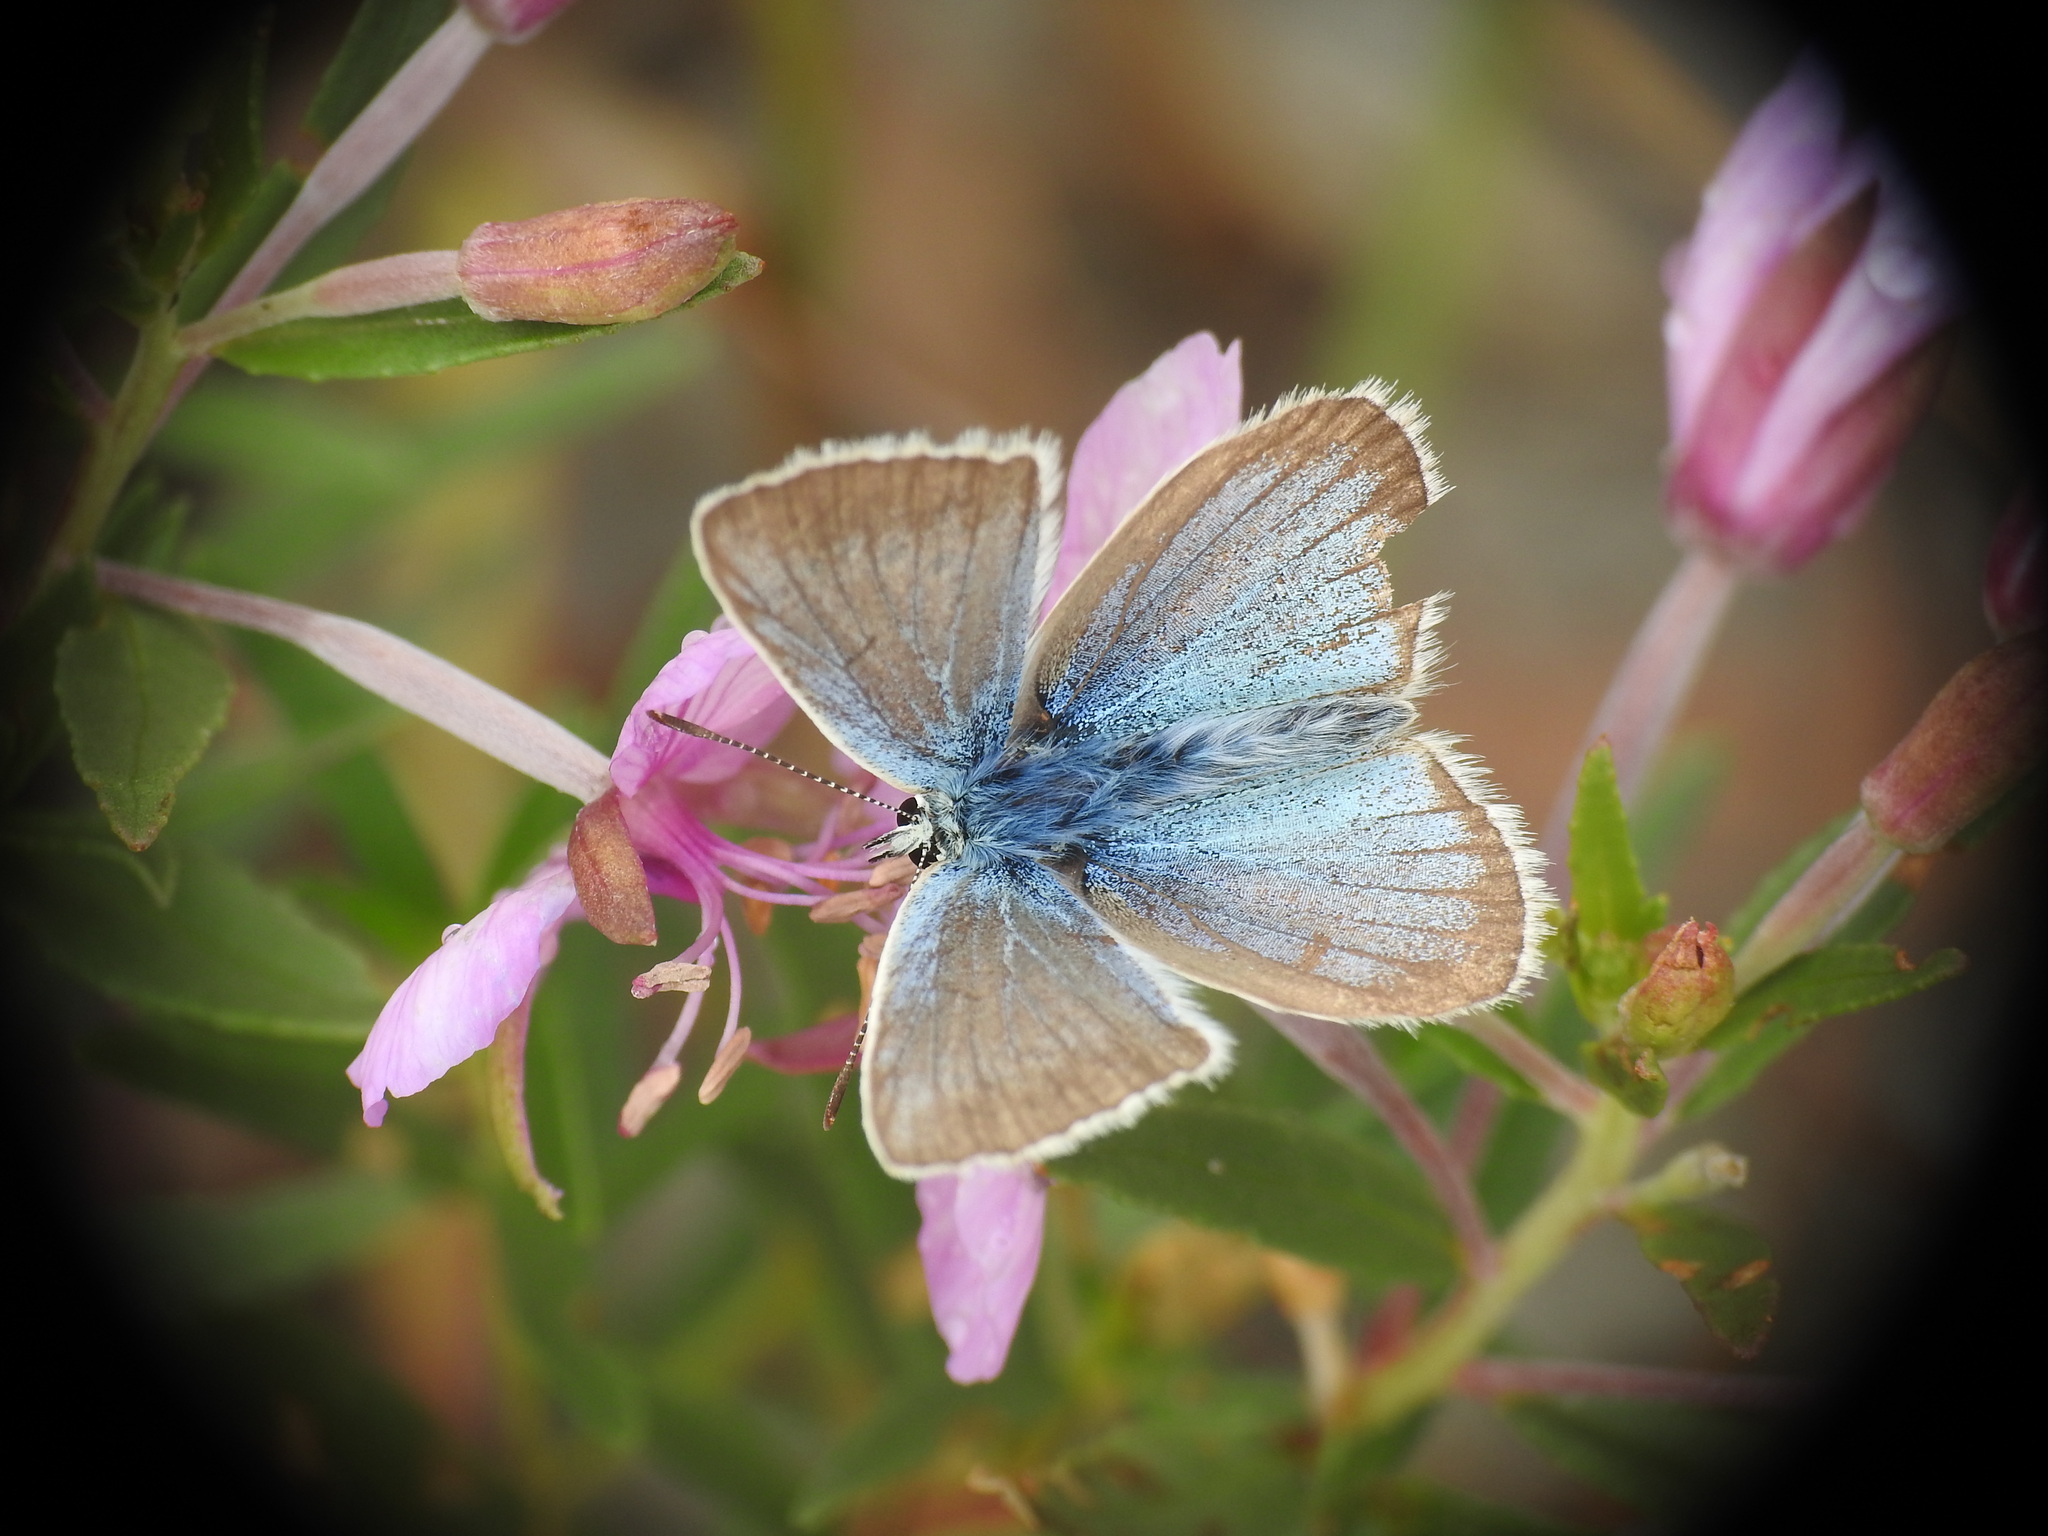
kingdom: Animalia
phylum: Arthropoda
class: Insecta
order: Lepidoptera
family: Lycaenidae
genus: Agrodiaetus
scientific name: Agrodiaetus damon
